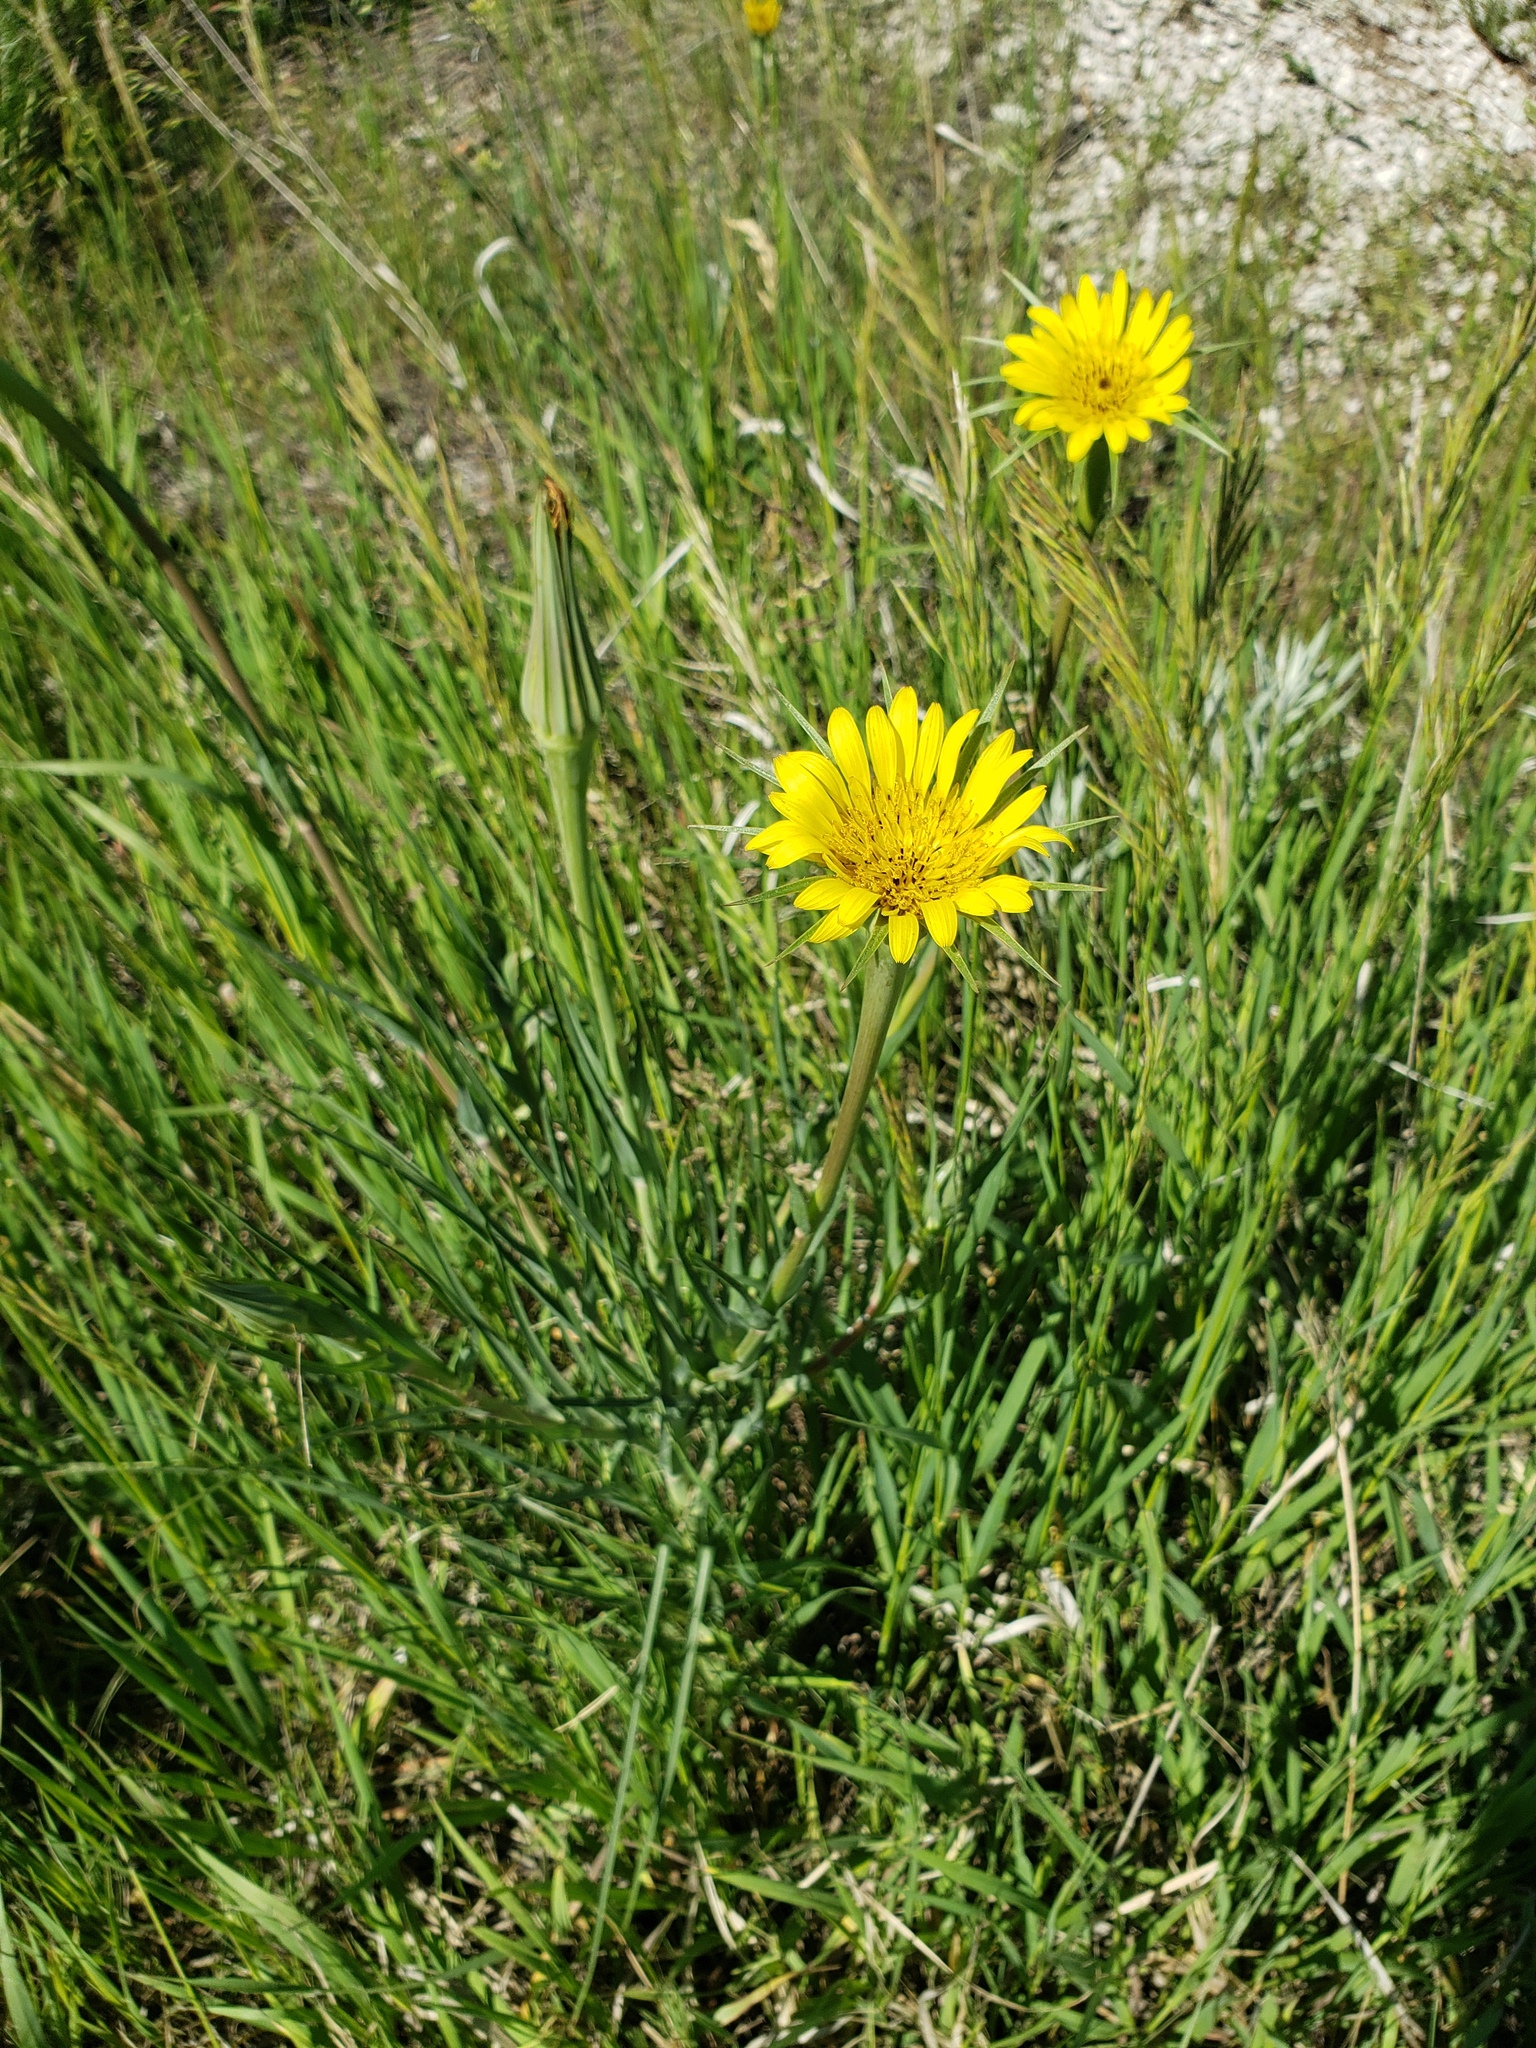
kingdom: Plantae
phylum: Tracheophyta
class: Magnoliopsida
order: Asterales
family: Asteraceae
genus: Tragopogon
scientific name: Tragopogon dubius
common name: Yellow salsify
